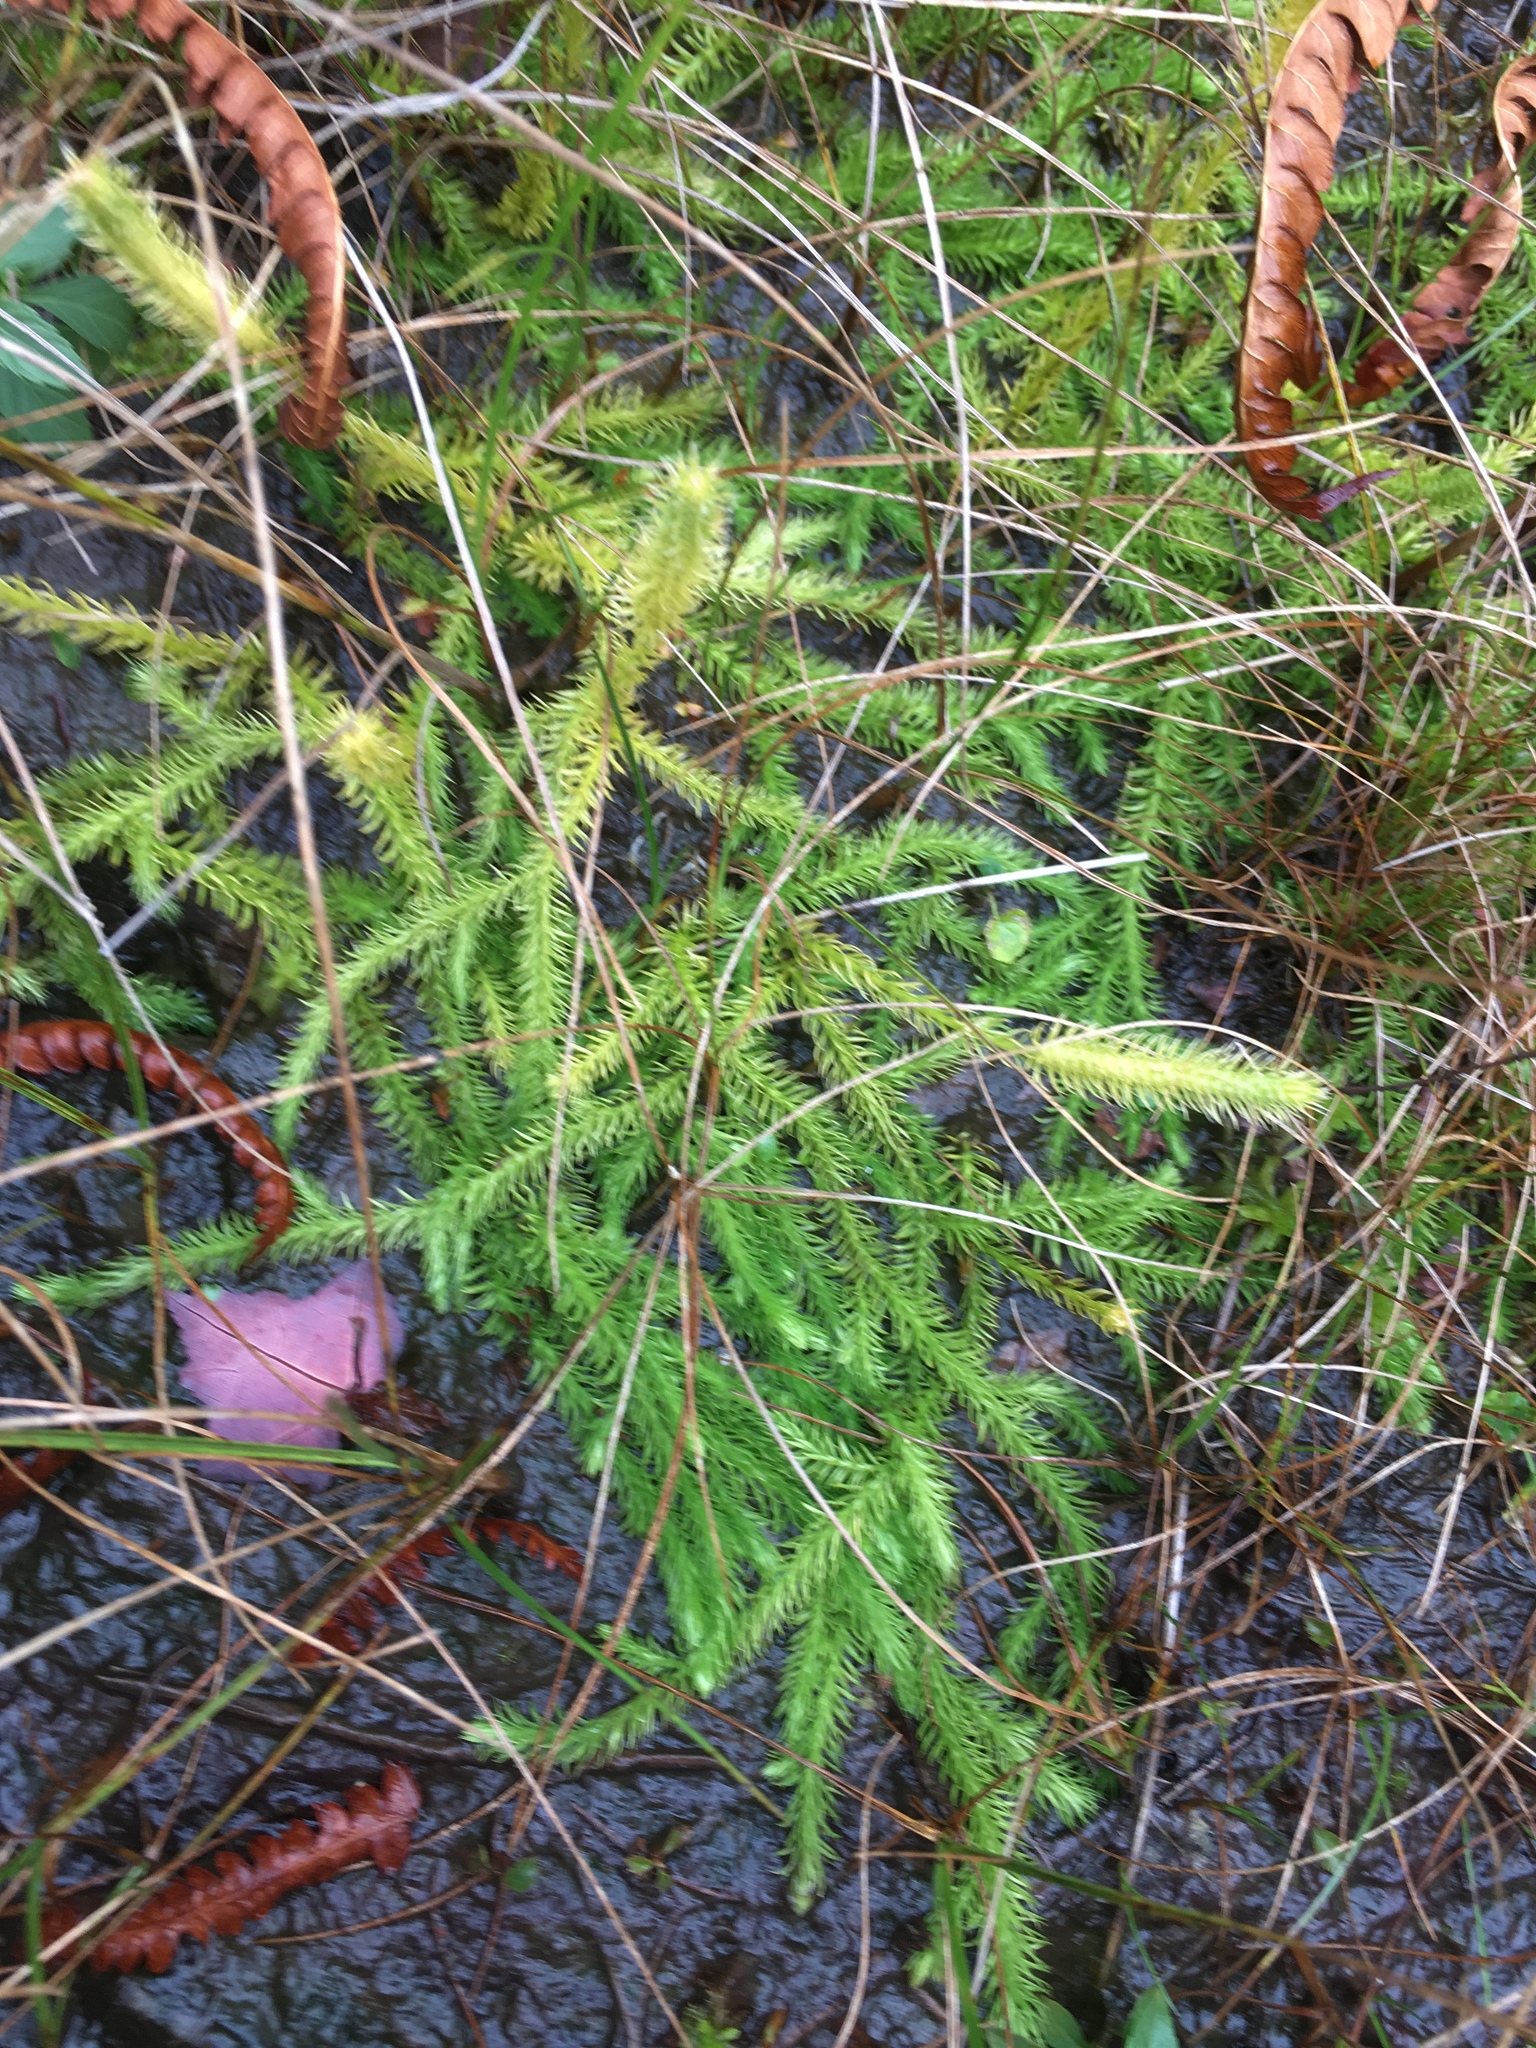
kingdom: Plantae
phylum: Tracheophyta
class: Lycopodiopsida
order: Lycopodiales
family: Lycopodiaceae
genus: Lycopodium
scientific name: Lycopodium clavatum
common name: Stag's-horn clubmoss
